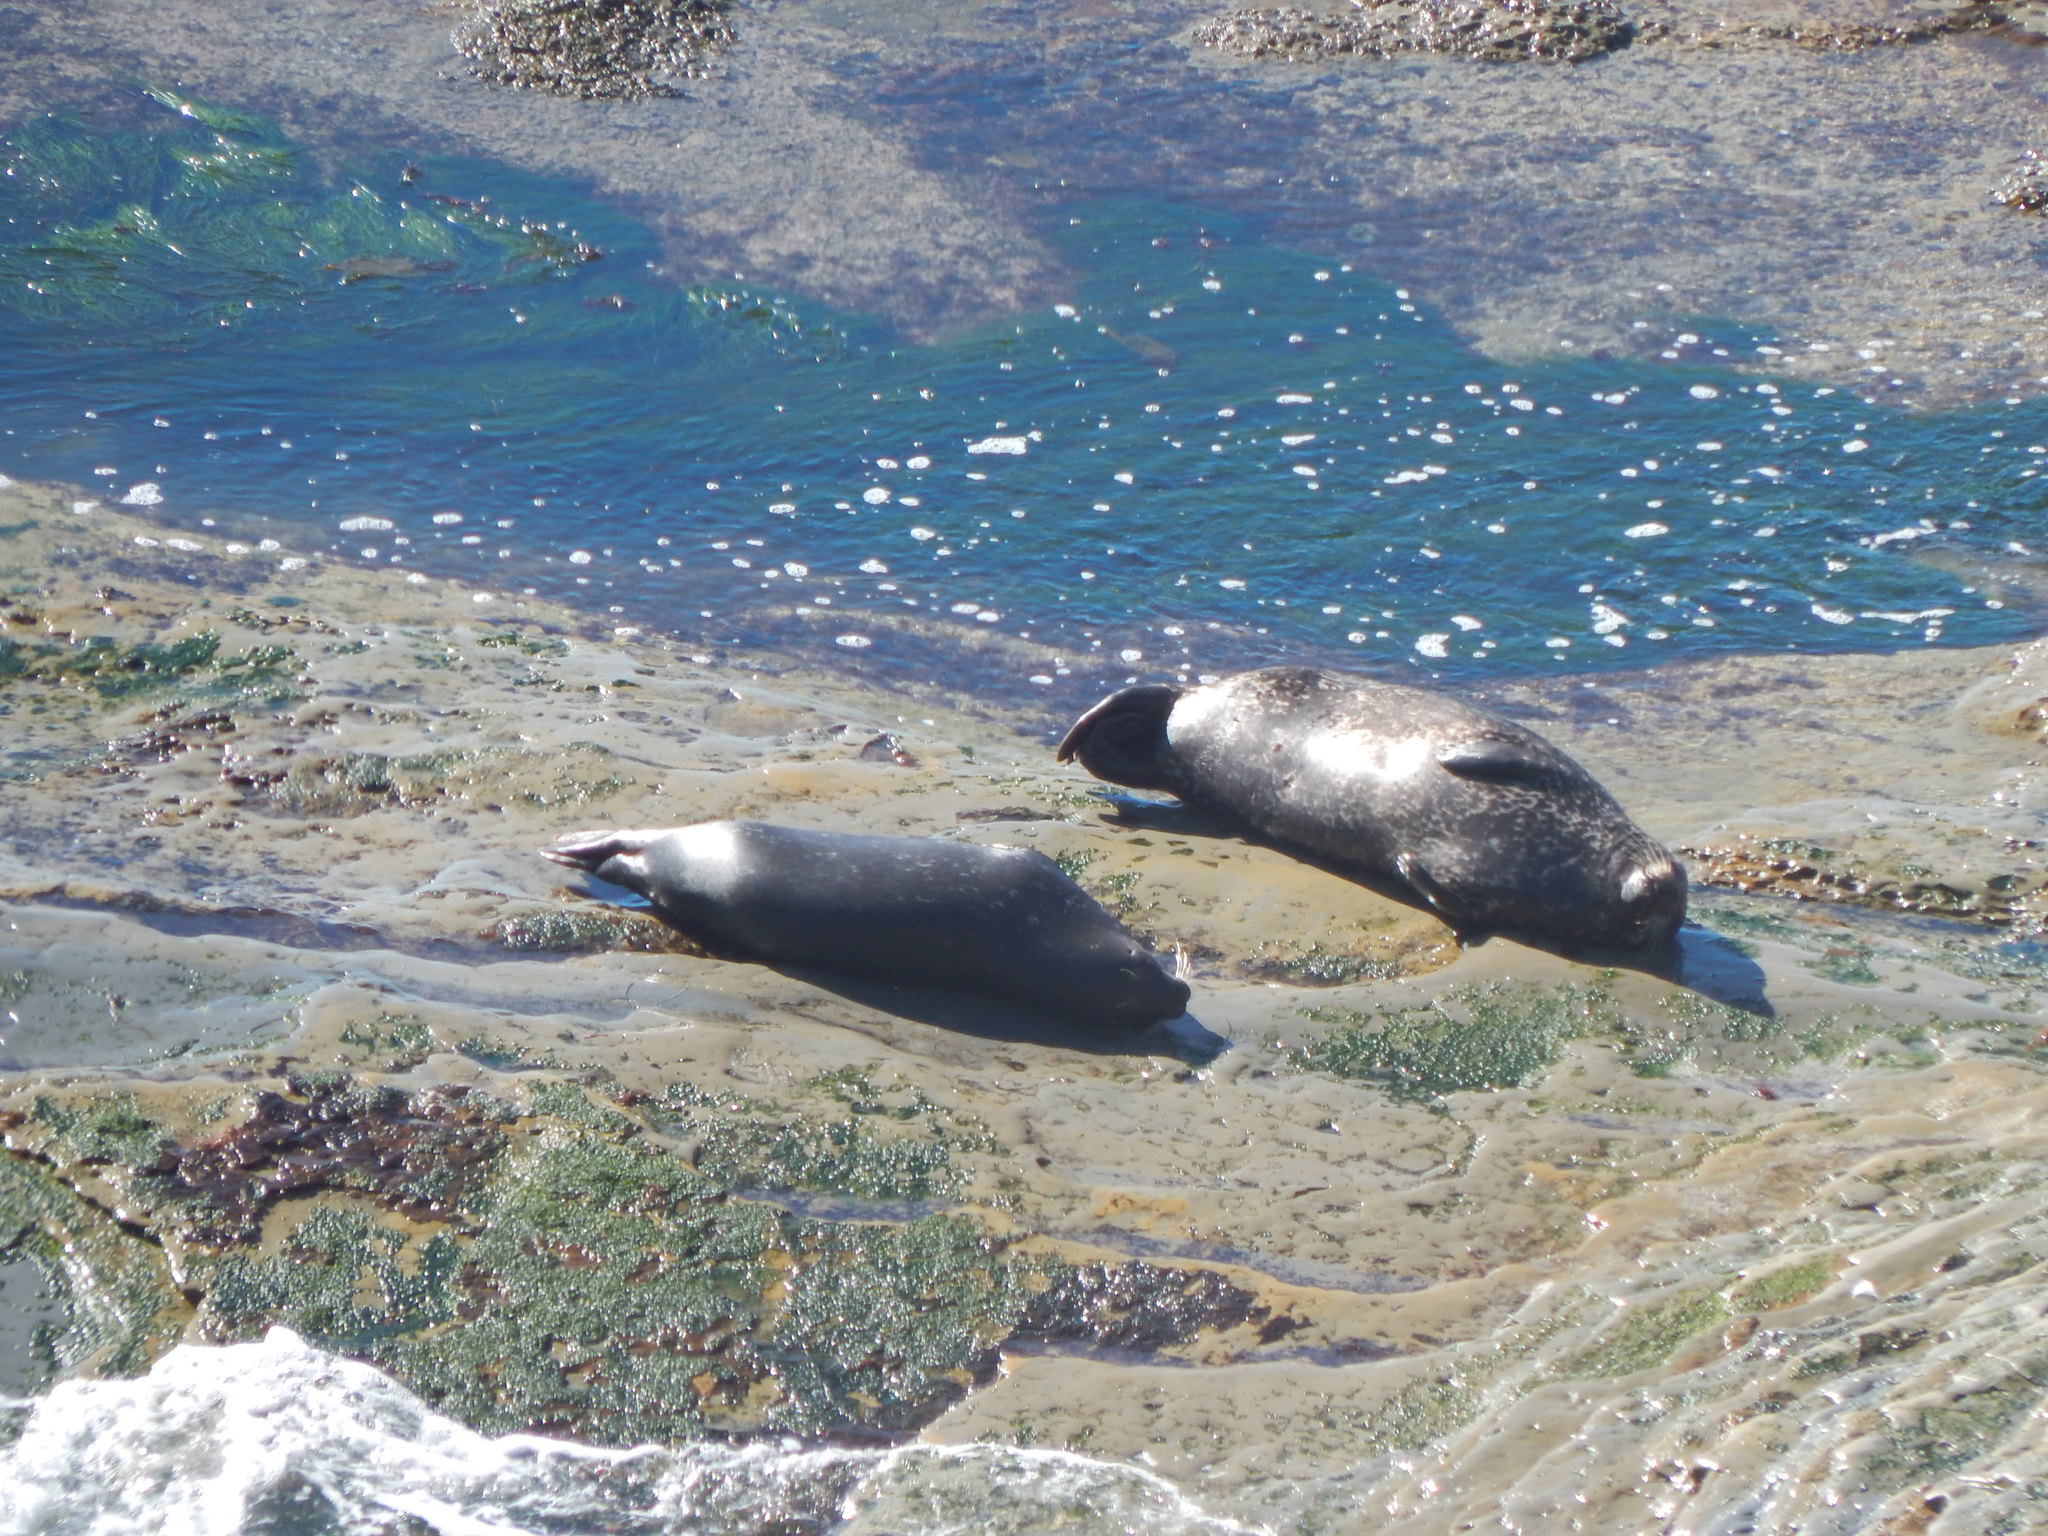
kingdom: Animalia
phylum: Chordata
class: Mammalia
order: Carnivora
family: Phocidae
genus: Phoca
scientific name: Phoca vitulina
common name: Harbor seal
